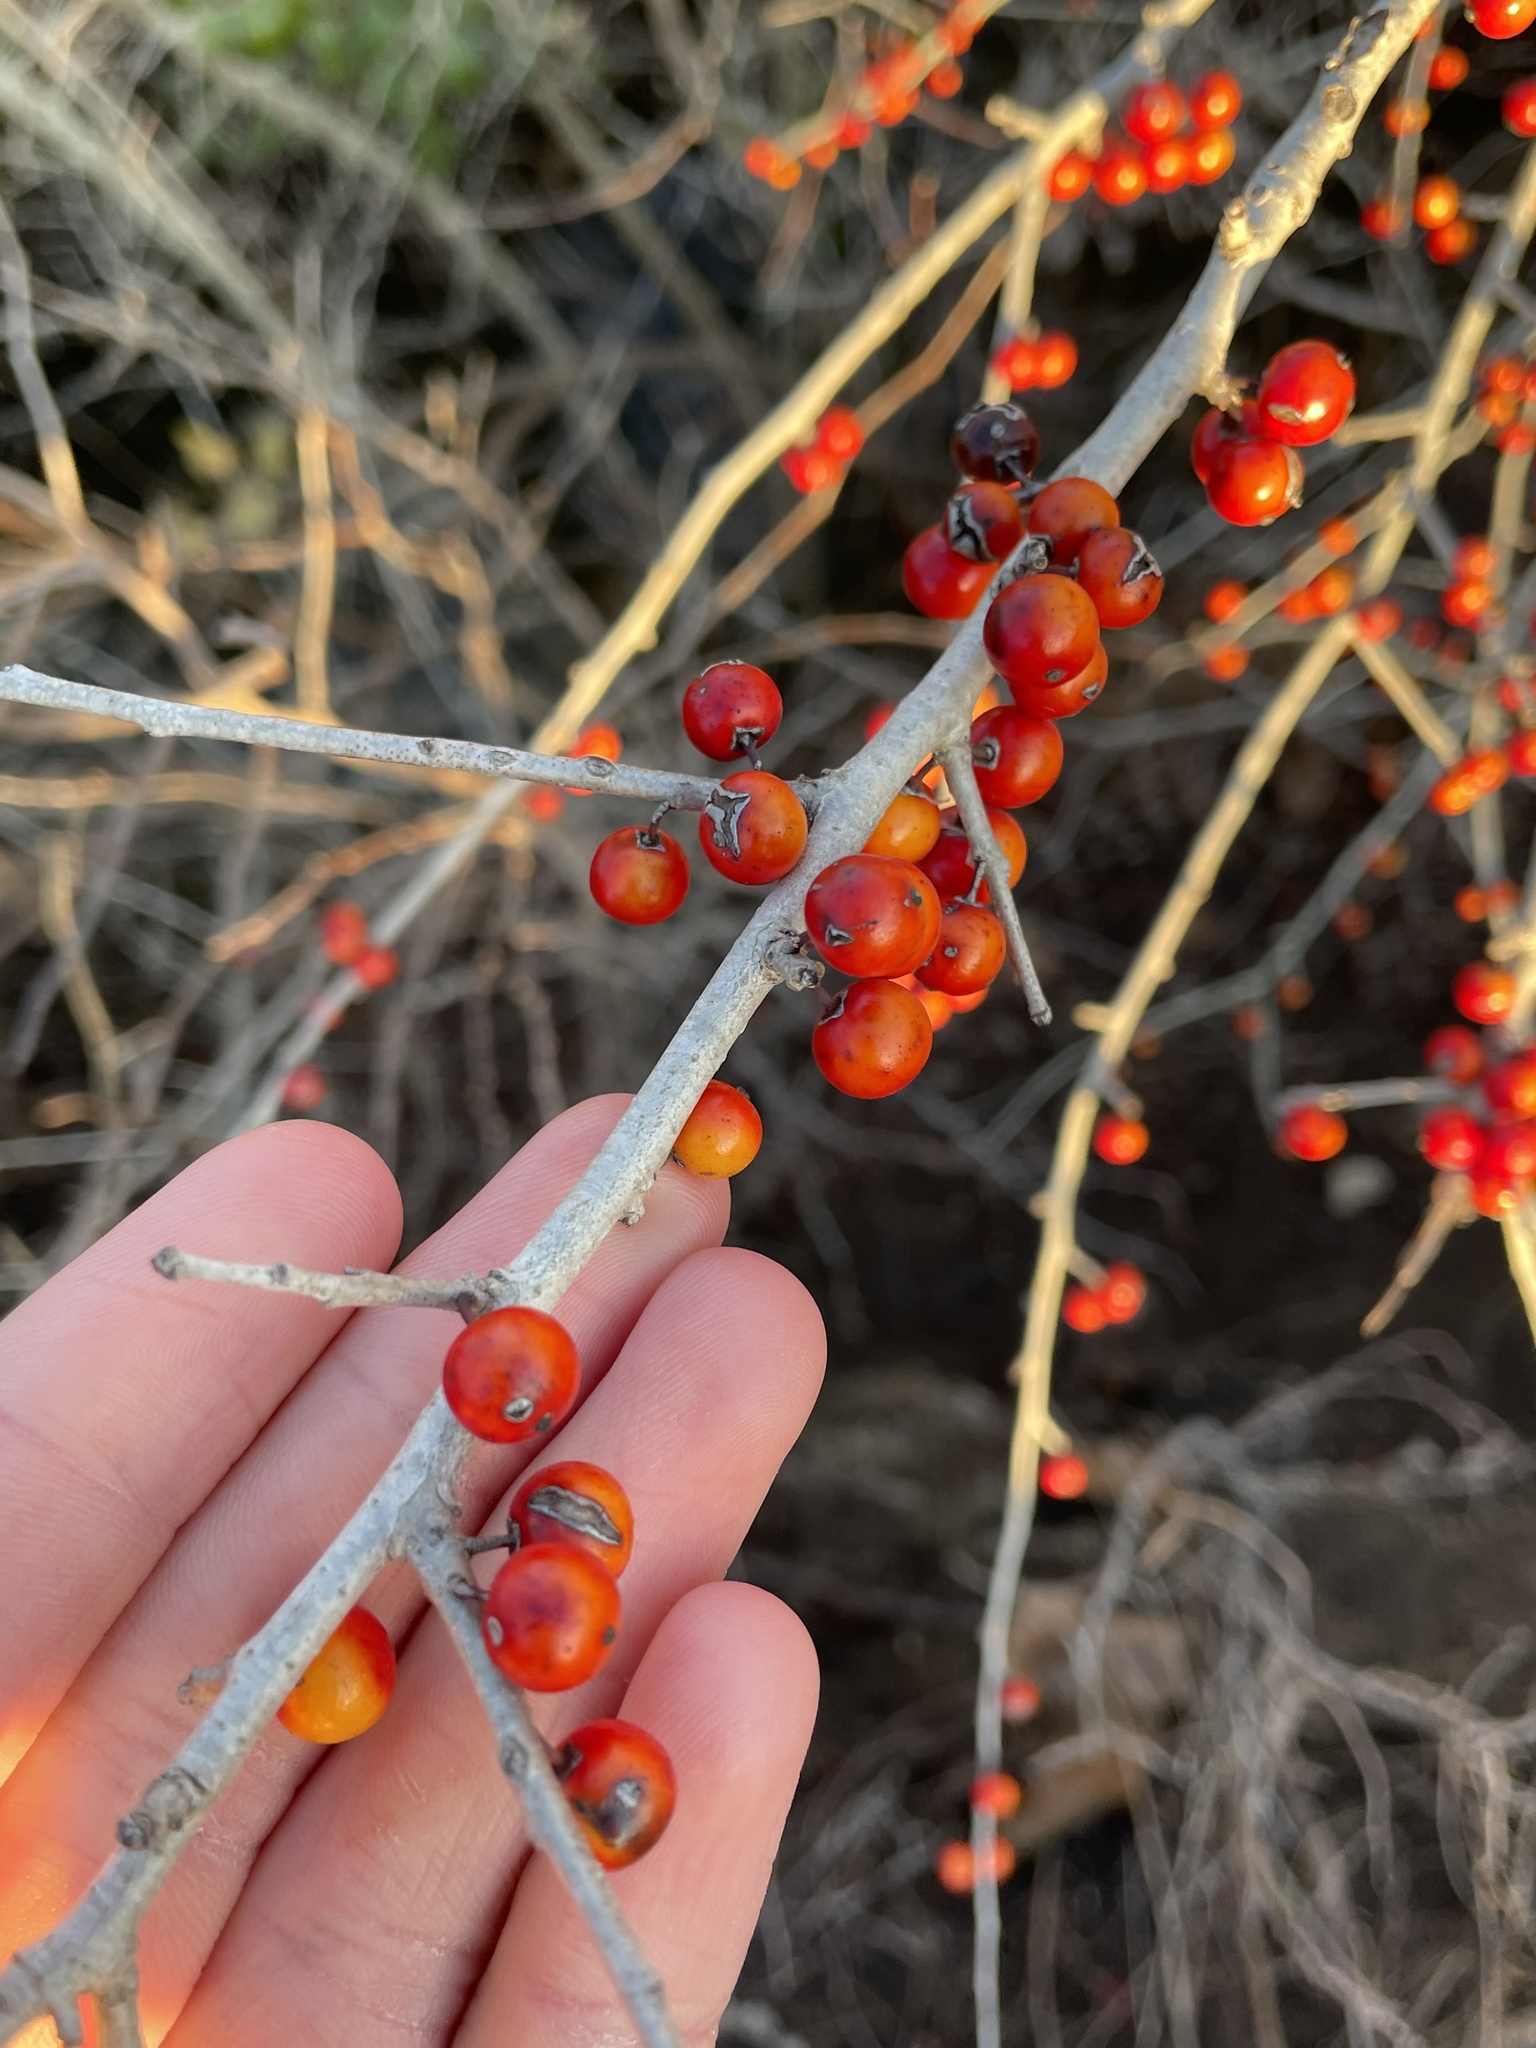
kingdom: Plantae
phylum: Tracheophyta
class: Magnoliopsida
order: Aquifoliales
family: Aquifoliaceae
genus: Ilex
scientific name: Ilex decidua
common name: Possum-haw
